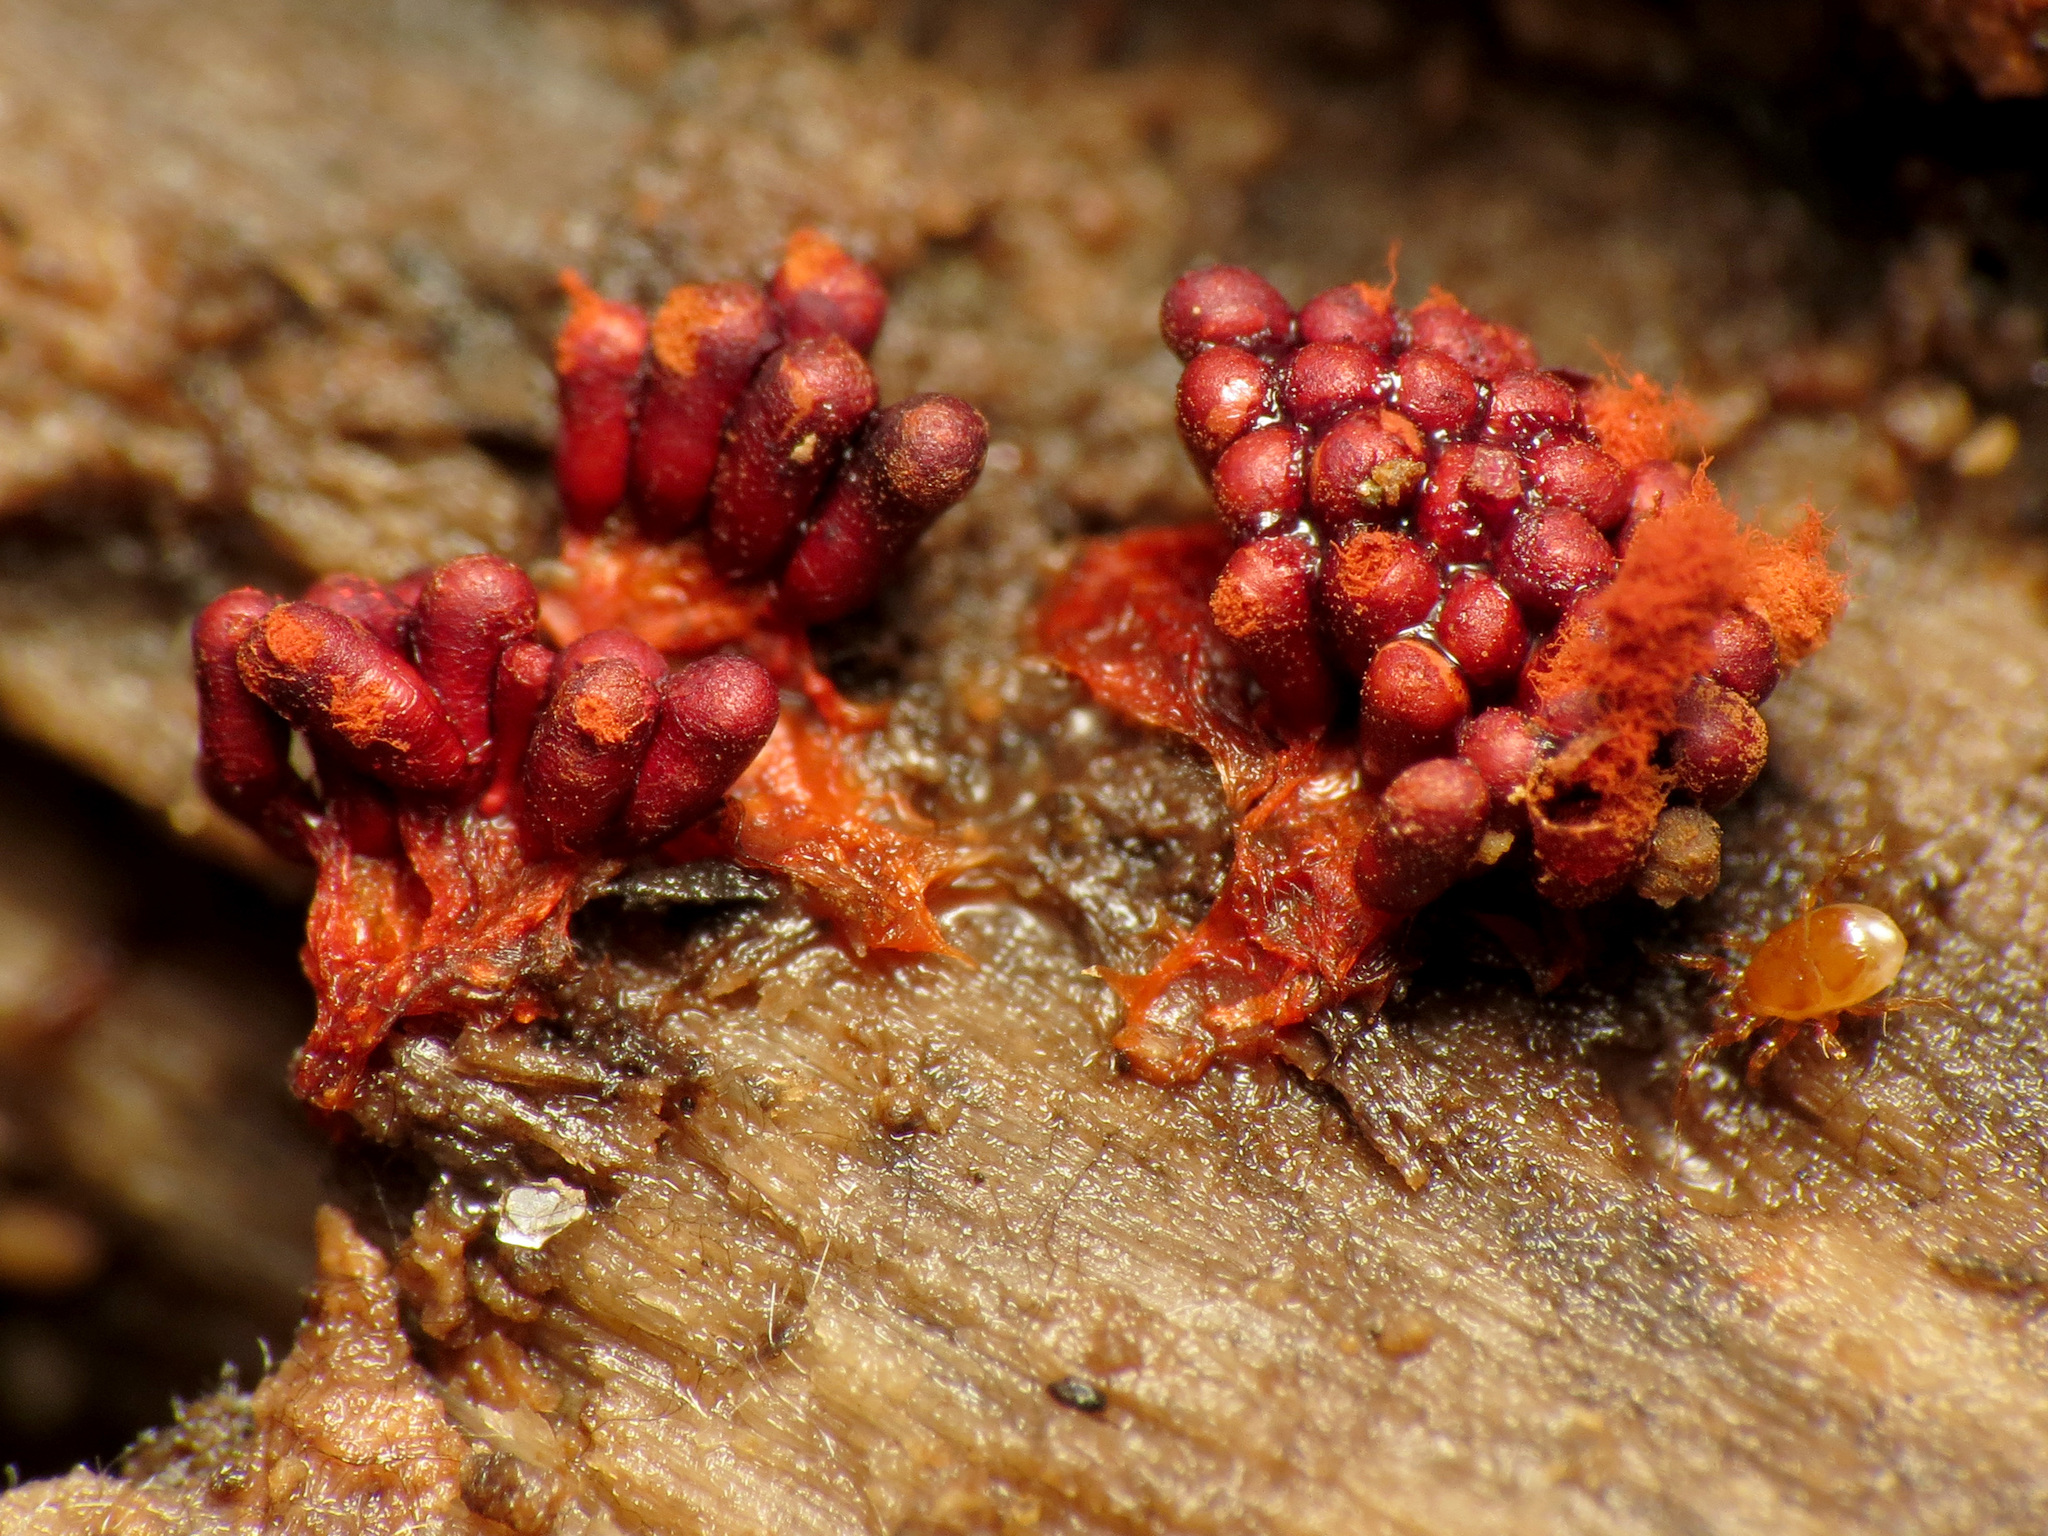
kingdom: Protozoa
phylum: Mycetozoa
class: Myxomycetes
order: Trichiales
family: Trichiaceae
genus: Metatrichia
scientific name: Metatrichia vesparia
